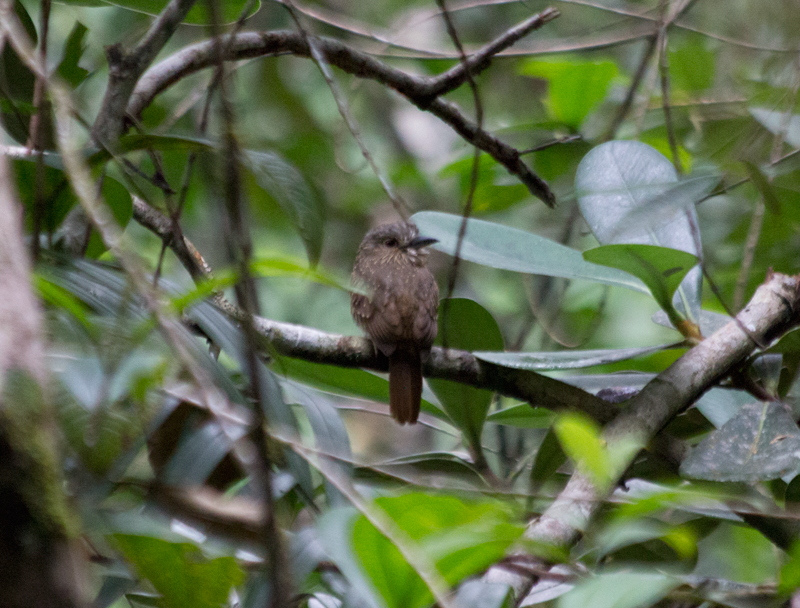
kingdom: Animalia
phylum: Chordata
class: Aves
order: Piciformes
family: Bucconidae
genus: Malacoptila
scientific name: Malacoptila panamensis
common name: White-whiskered puffbird
